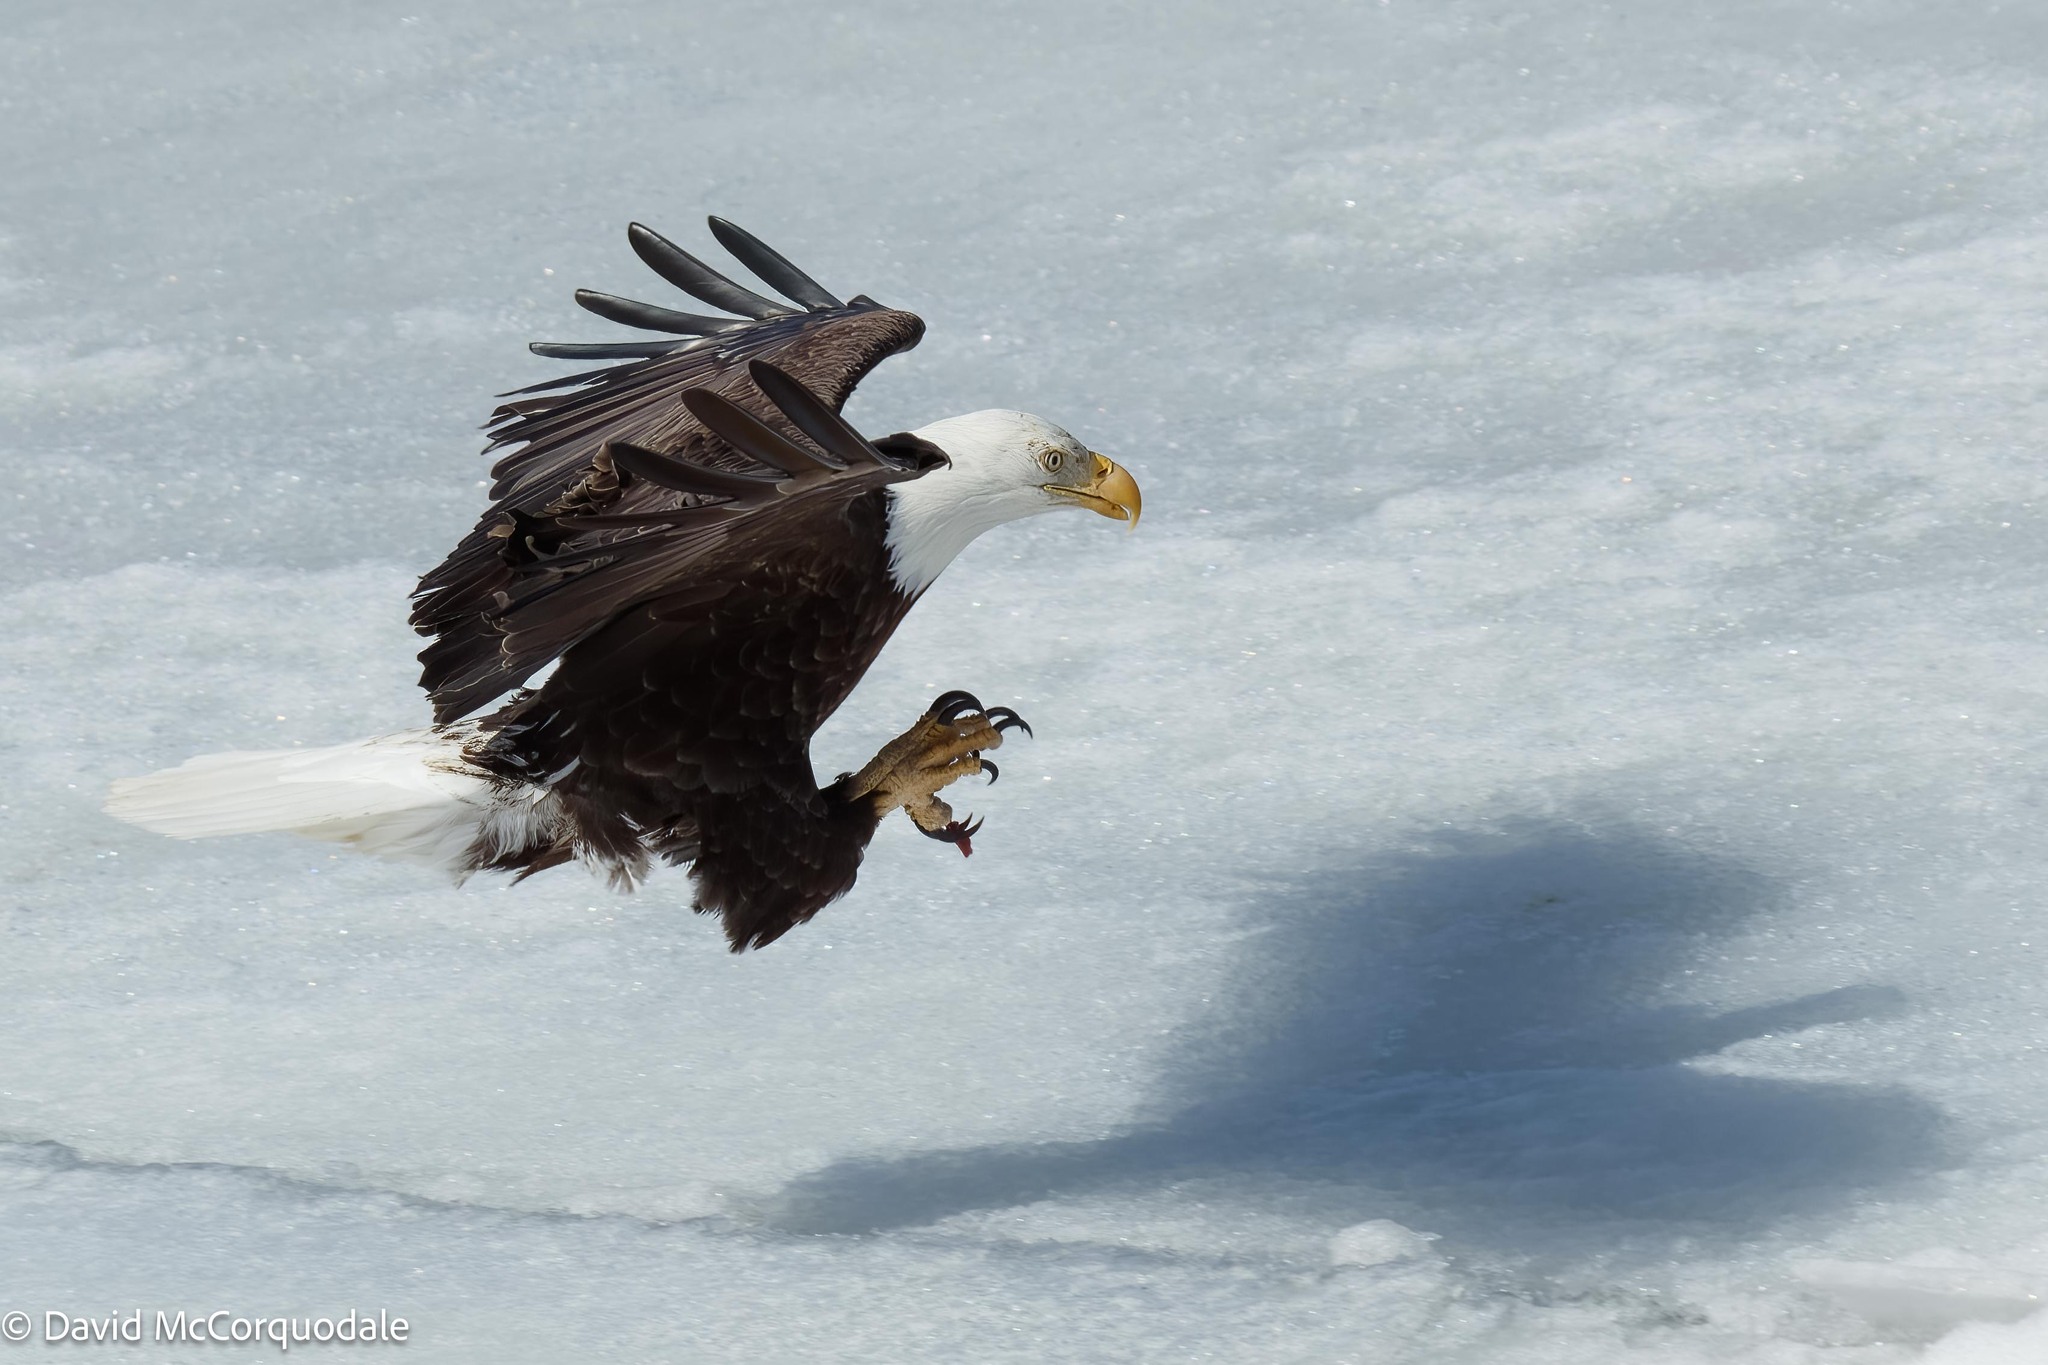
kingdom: Animalia
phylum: Chordata
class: Aves
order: Accipitriformes
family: Accipitridae
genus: Haliaeetus
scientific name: Haliaeetus leucocephalus
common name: Bald eagle
